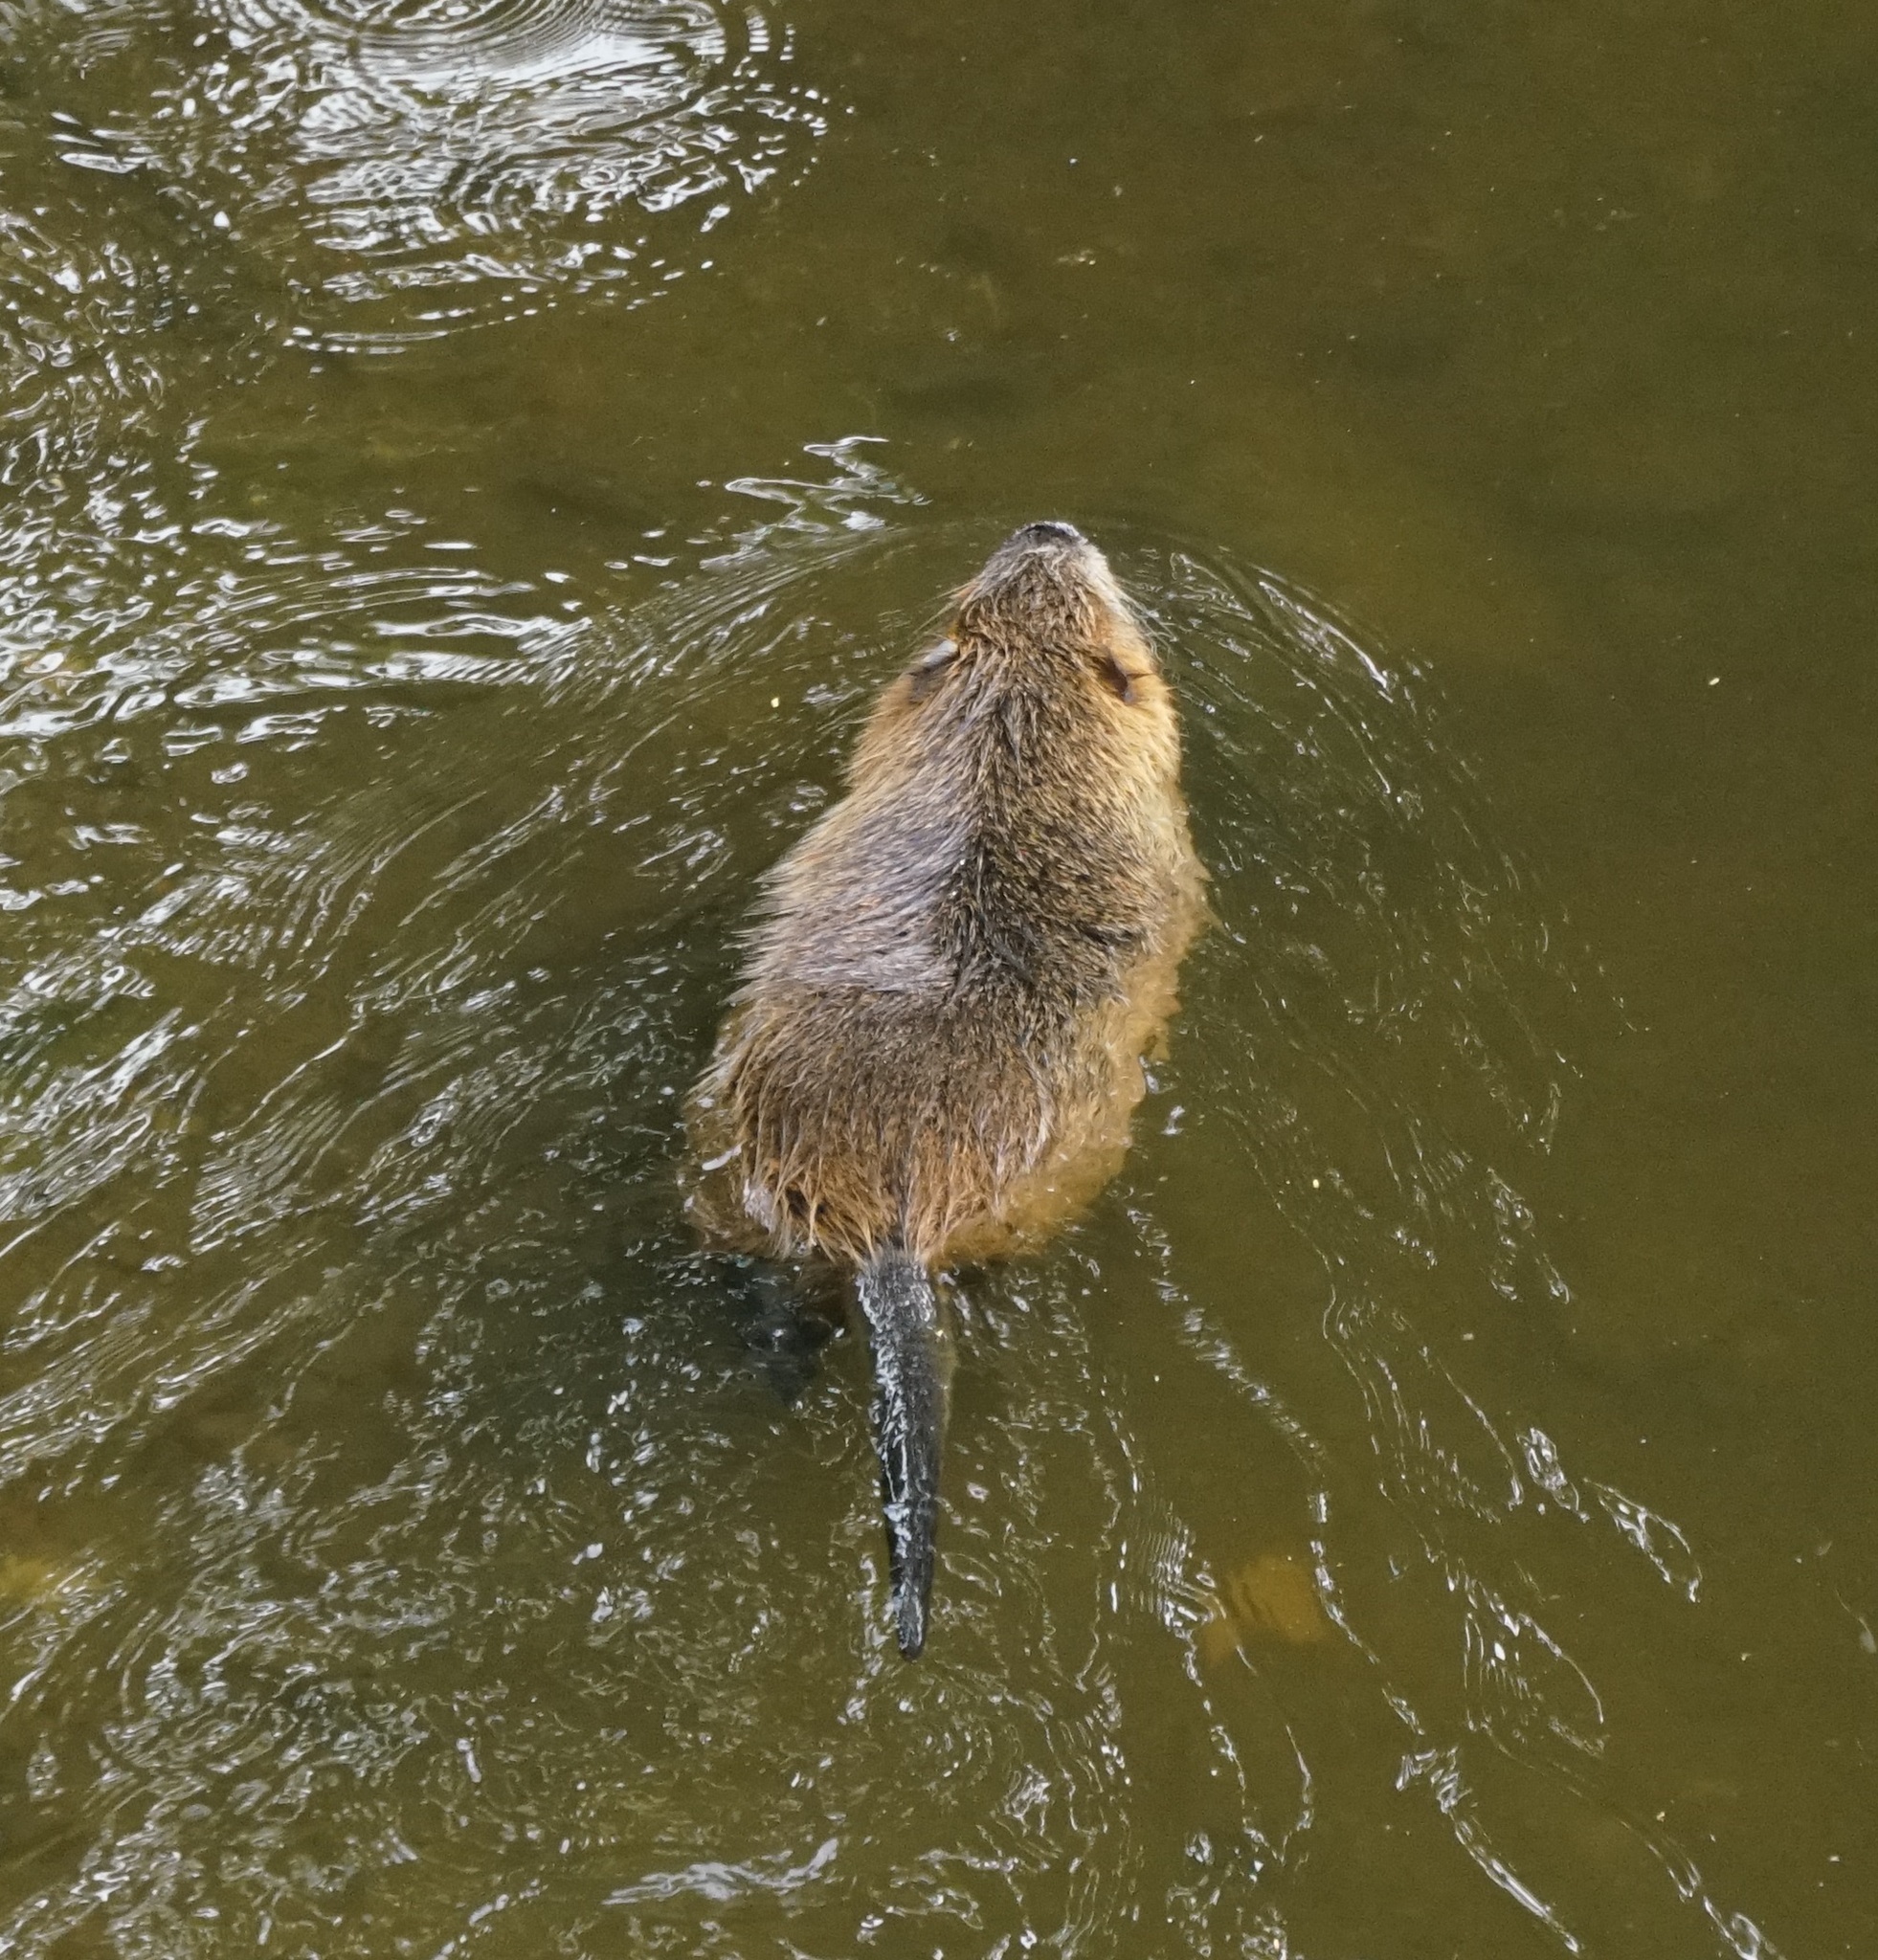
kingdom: Animalia
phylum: Chordata
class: Mammalia
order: Rodentia
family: Myocastoridae
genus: Myocastor
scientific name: Myocastor coypus
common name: Coypu
